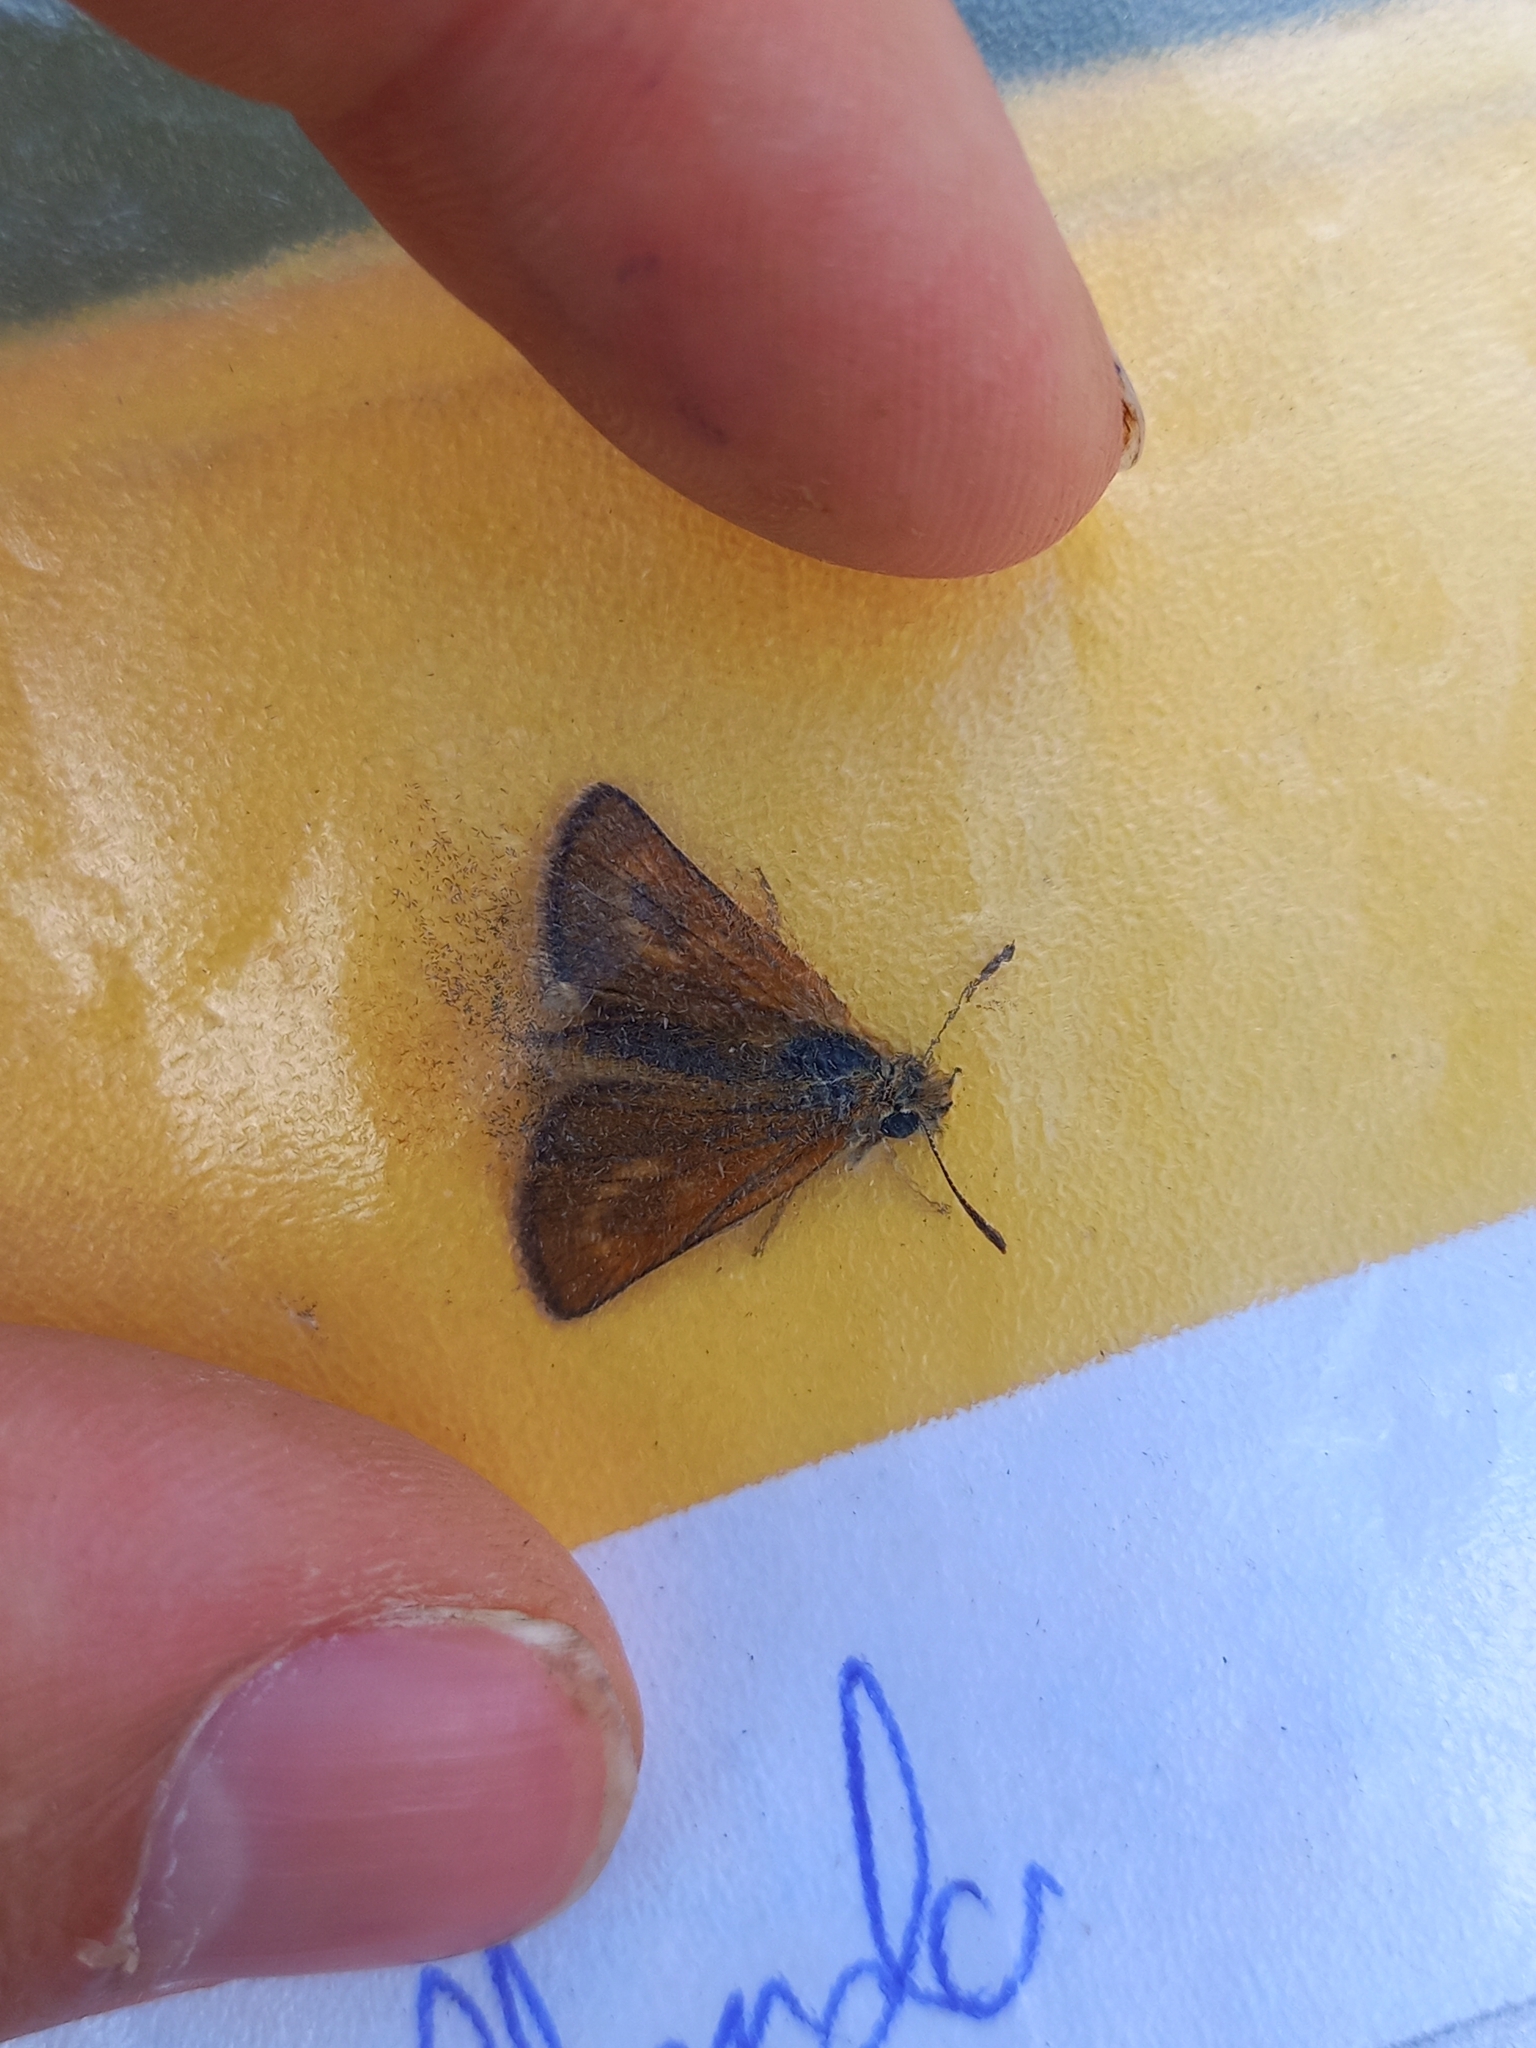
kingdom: Animalia
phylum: Arthropoda
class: Insecta
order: Lepidoptera
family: Hesperiidae
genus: Thymelicus
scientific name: Thymelicus acteon
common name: Lulworth skipper
